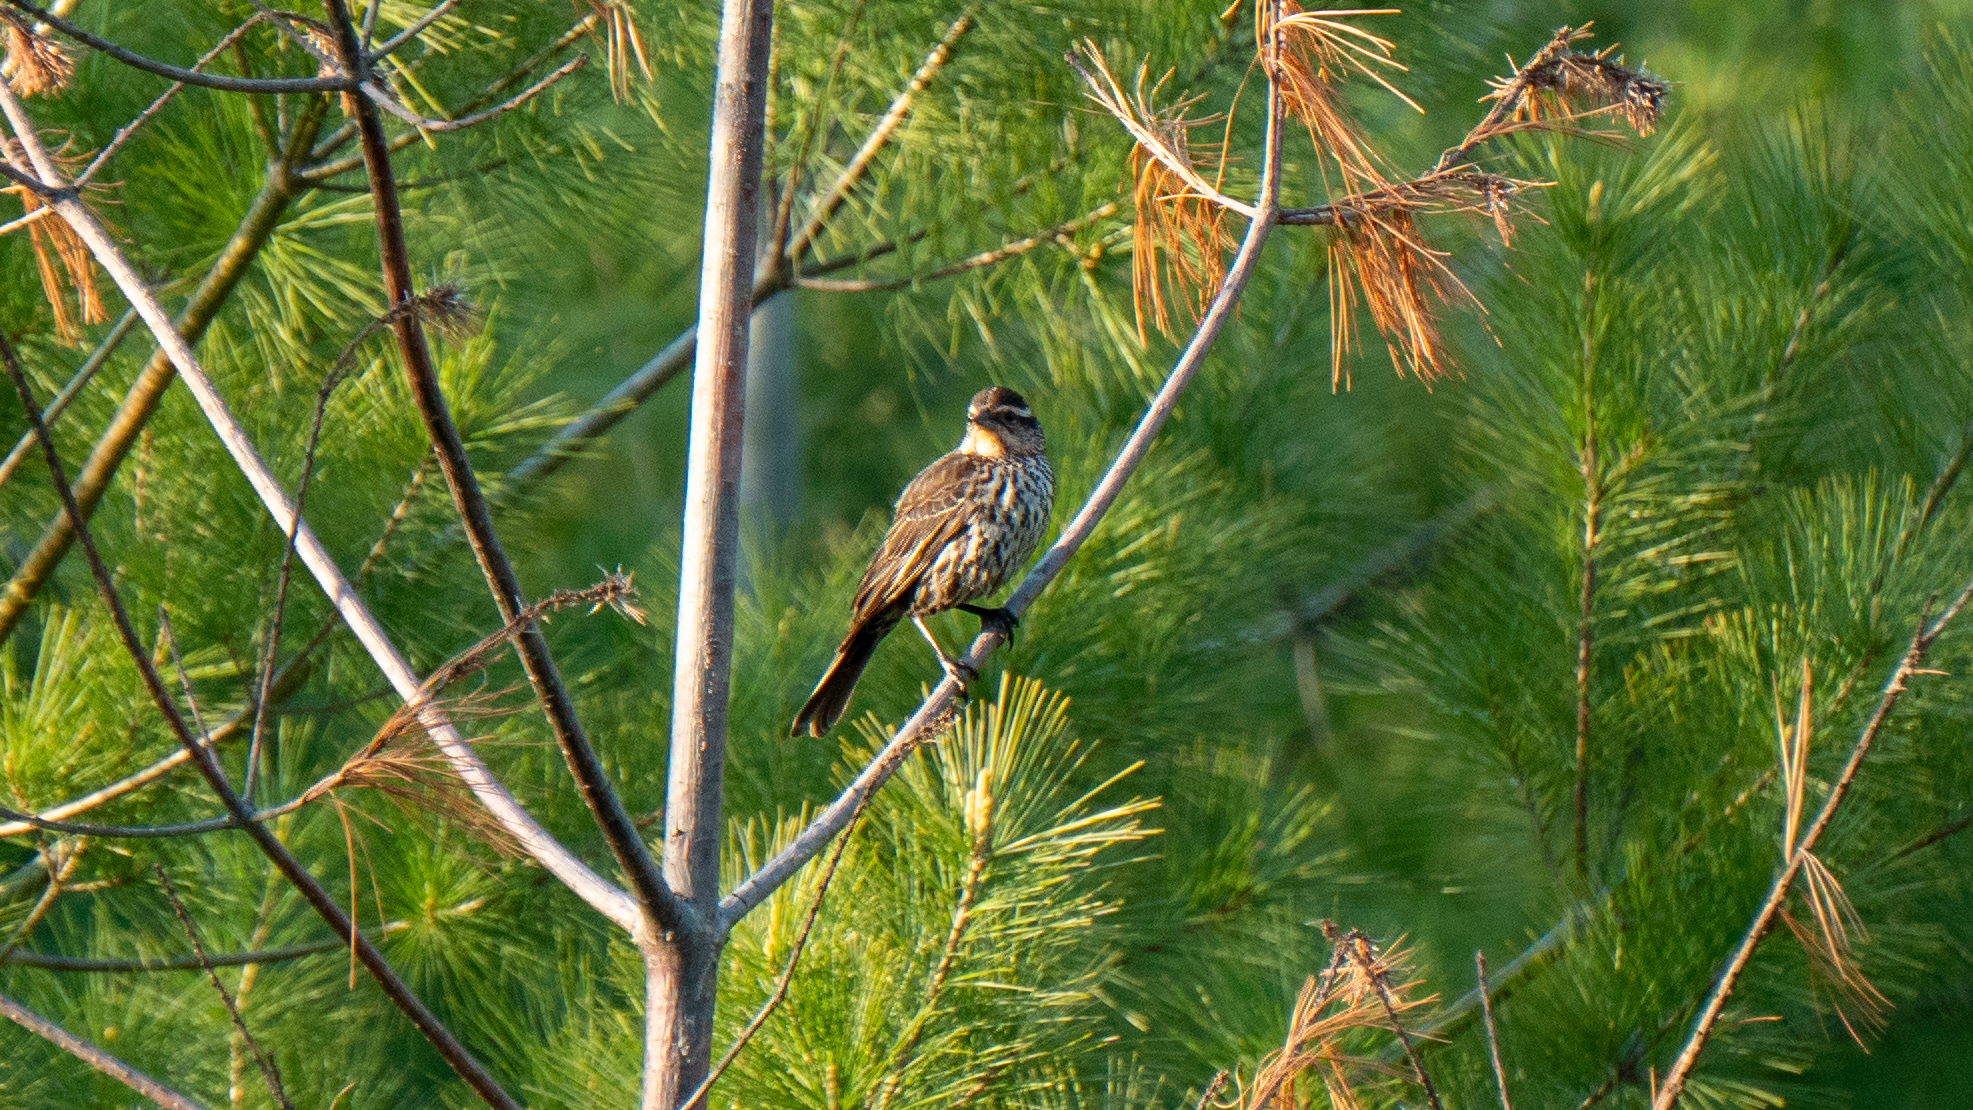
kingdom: Animalia
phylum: Chordata
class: Aves
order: Passeriformes
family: Icteridae
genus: Agelaius
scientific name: Agelaius phoeniceus
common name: Red-winged blackbird
